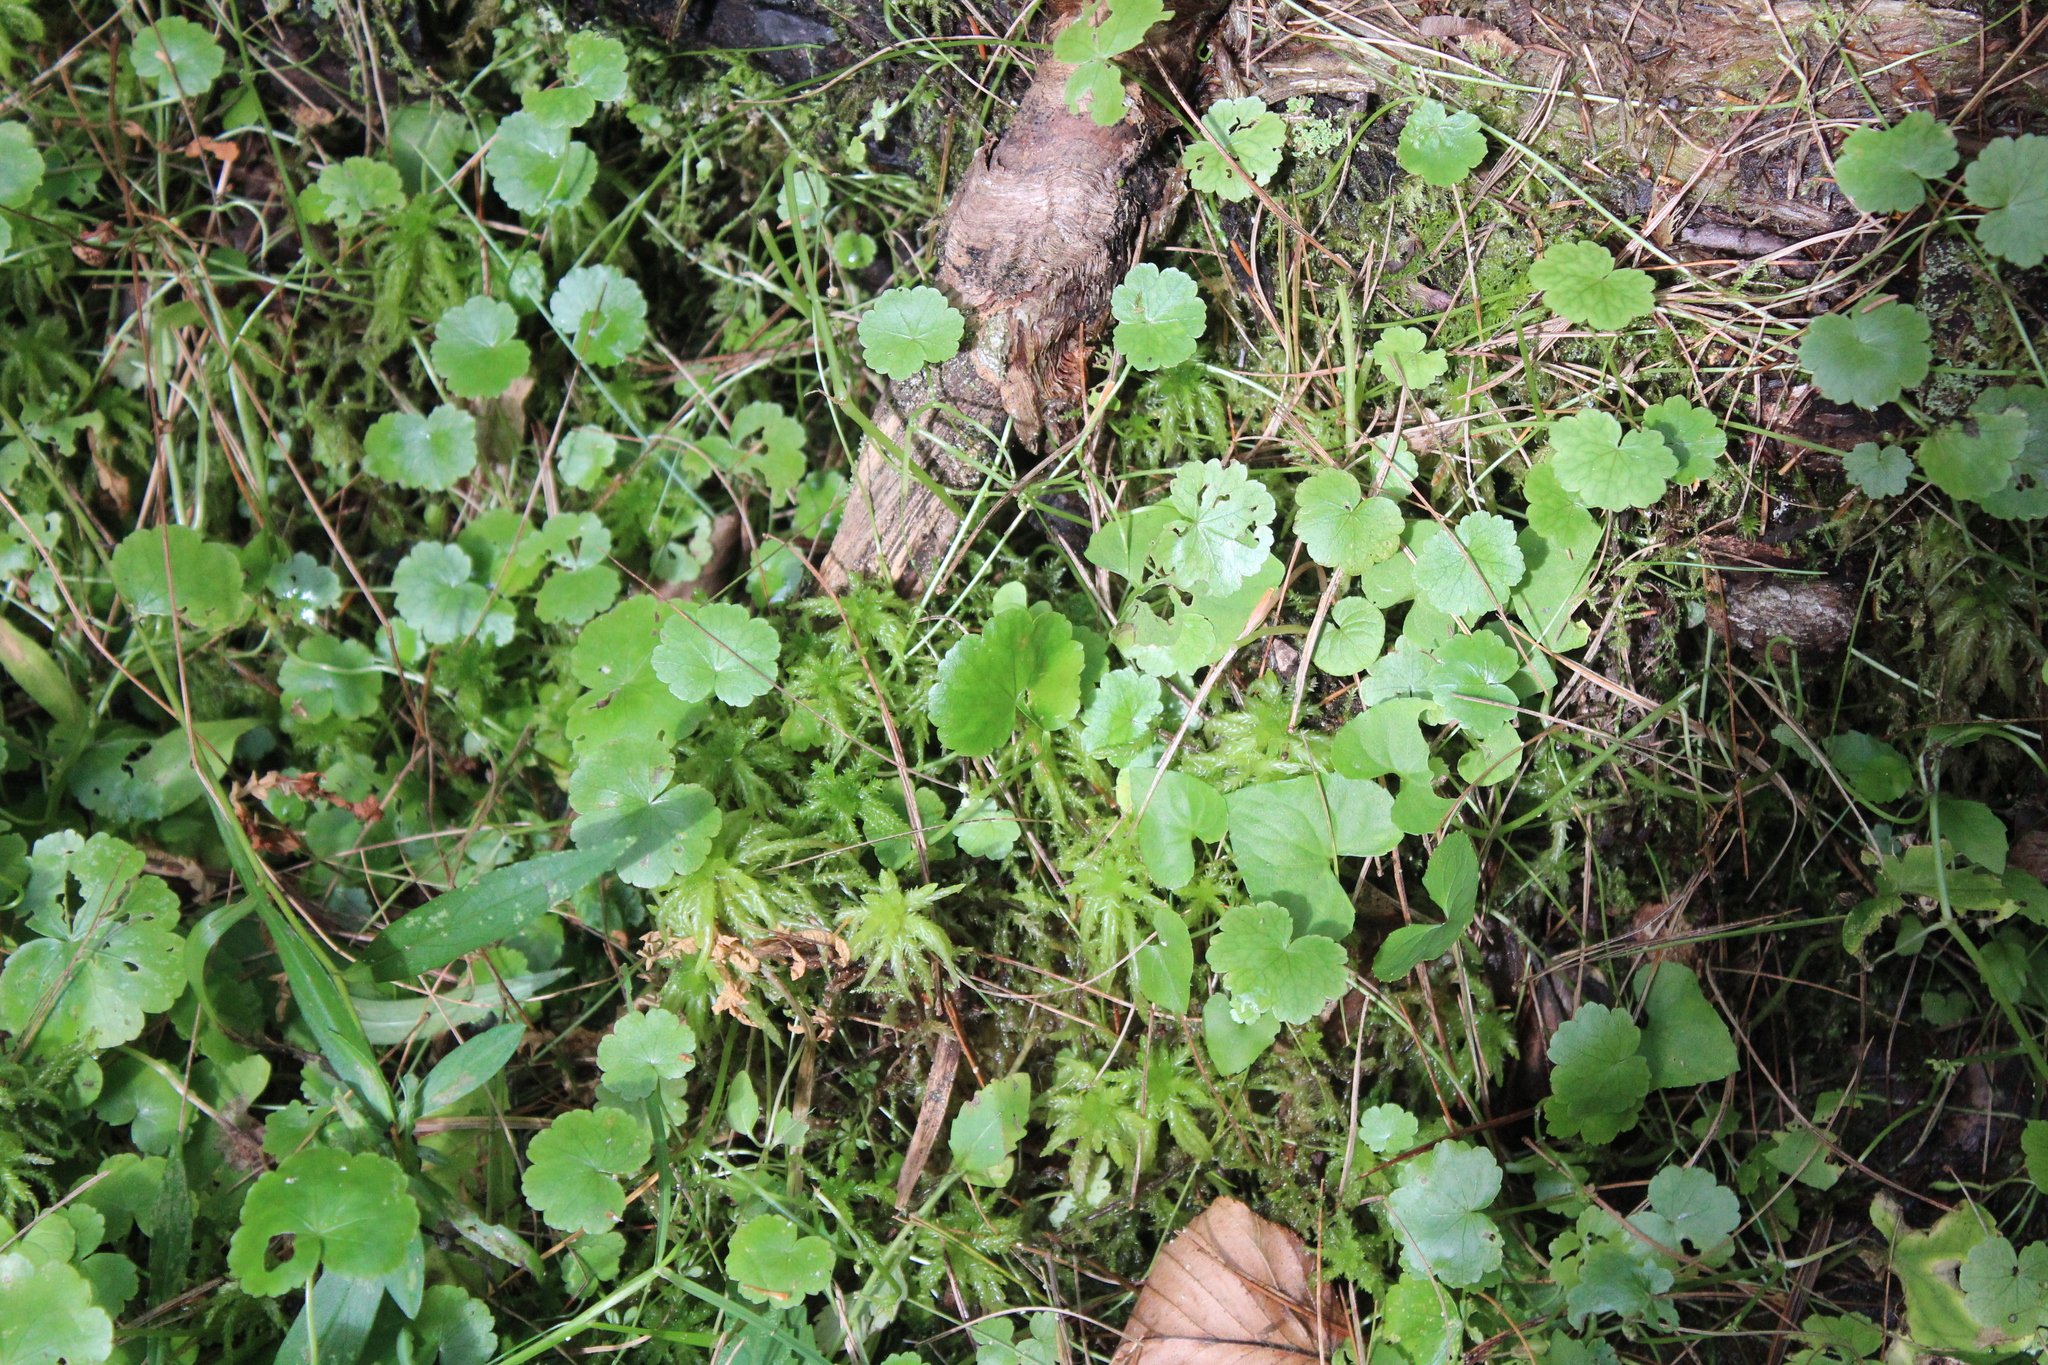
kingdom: Plantae
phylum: Tracheophyta
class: Magnoliopsida
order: Apiales
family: Araliaceae
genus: Hydrocotyle
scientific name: Hydrocotyle americana
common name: American water-pennywort
